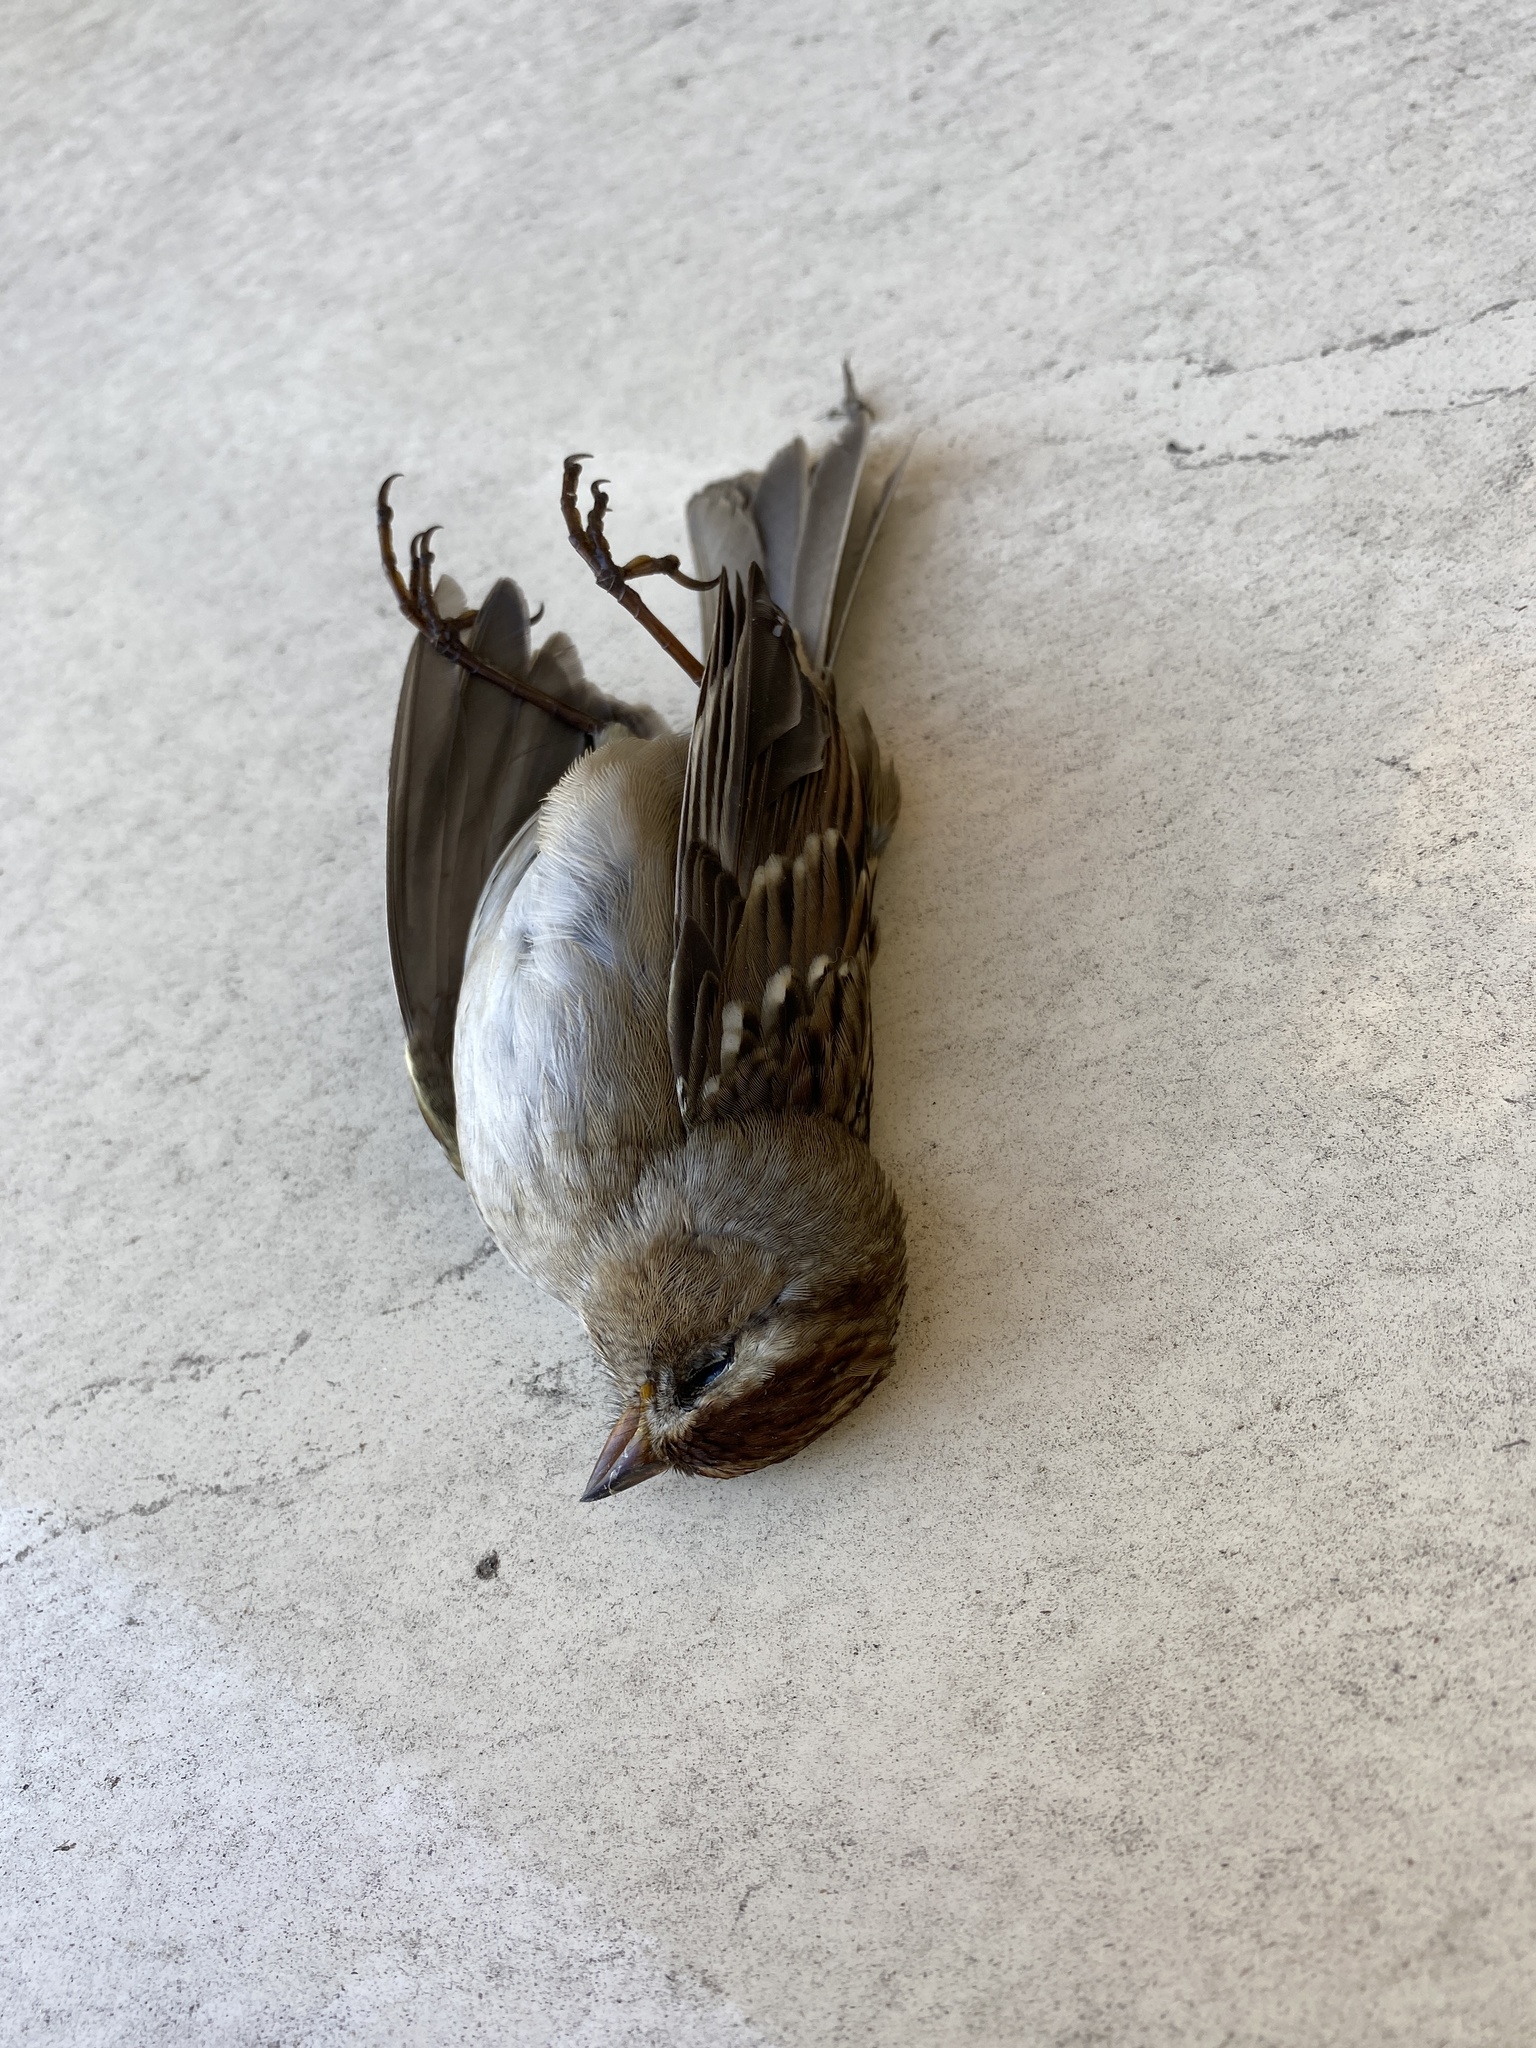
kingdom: Animalia
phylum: Chordata
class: Aves
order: Passeriformes
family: Passerellidae
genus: Zonotrichia
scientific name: Zonotrichia leucophrys
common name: White-crowned sparrow
